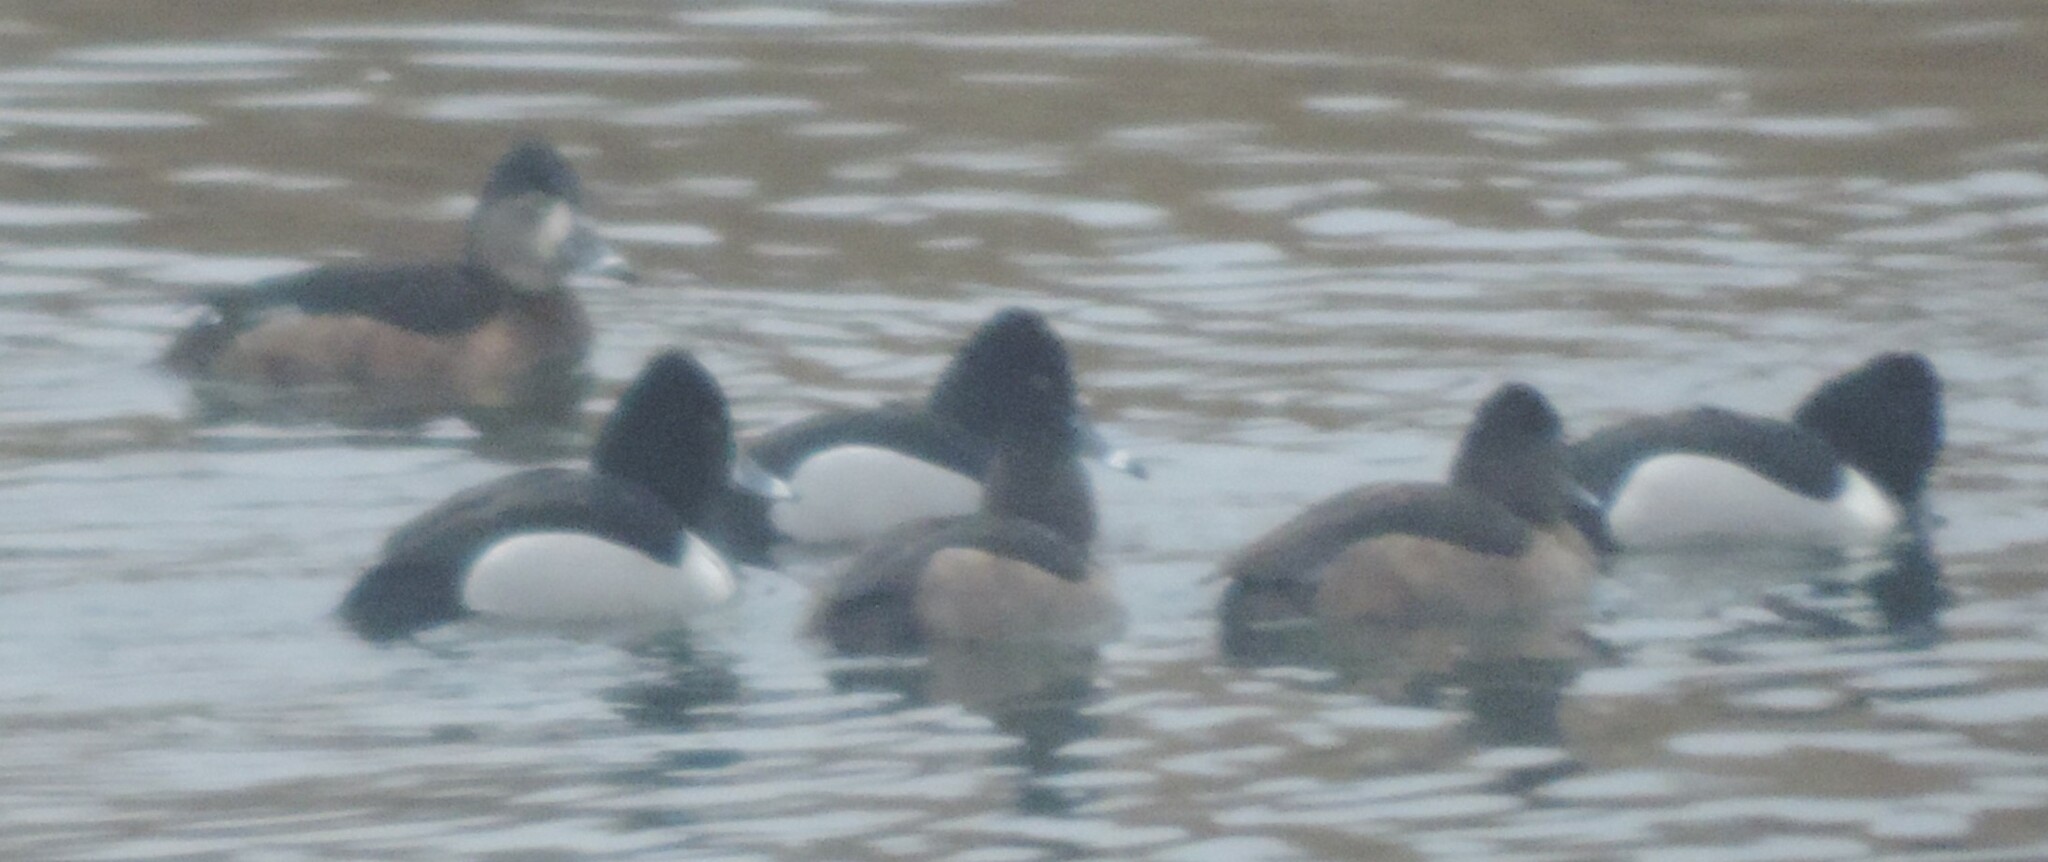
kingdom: Animalia
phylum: Chordata
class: Aves
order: Anseriformes
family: Anatidae
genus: Aythya
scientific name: Aythya collaris
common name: Ring-necked duck
